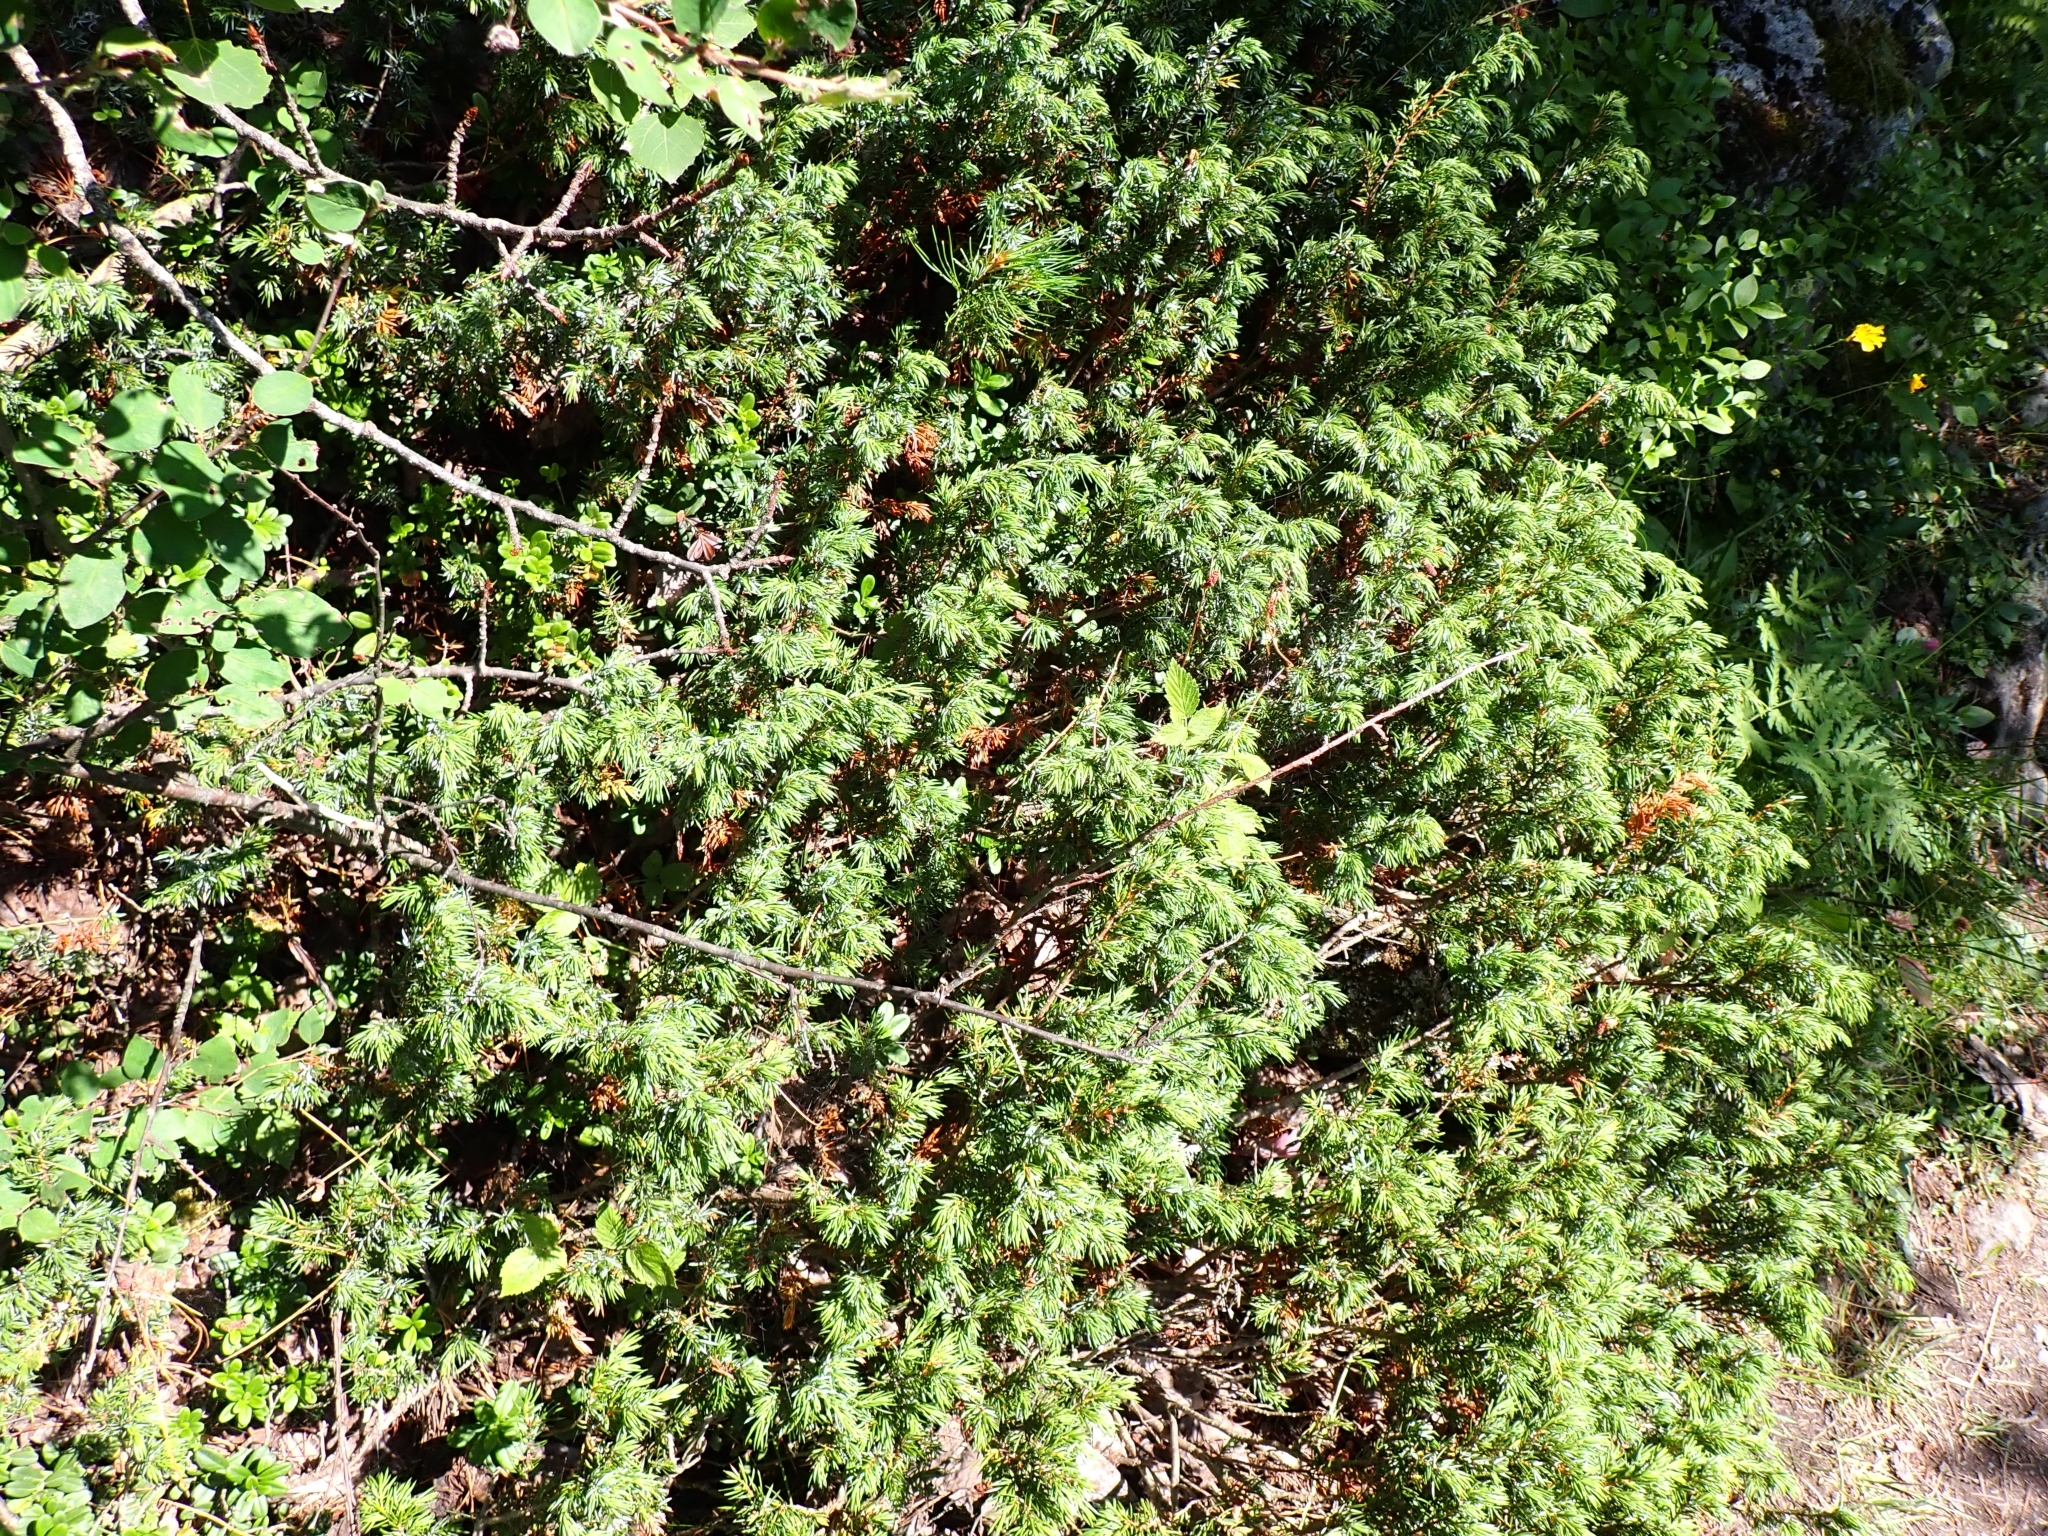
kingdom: Plantae
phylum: Tracheophyta
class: Pinopsida
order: Pinales
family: Cupressaceae
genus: Juniperus
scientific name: Juniperus communis
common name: Common juniper
